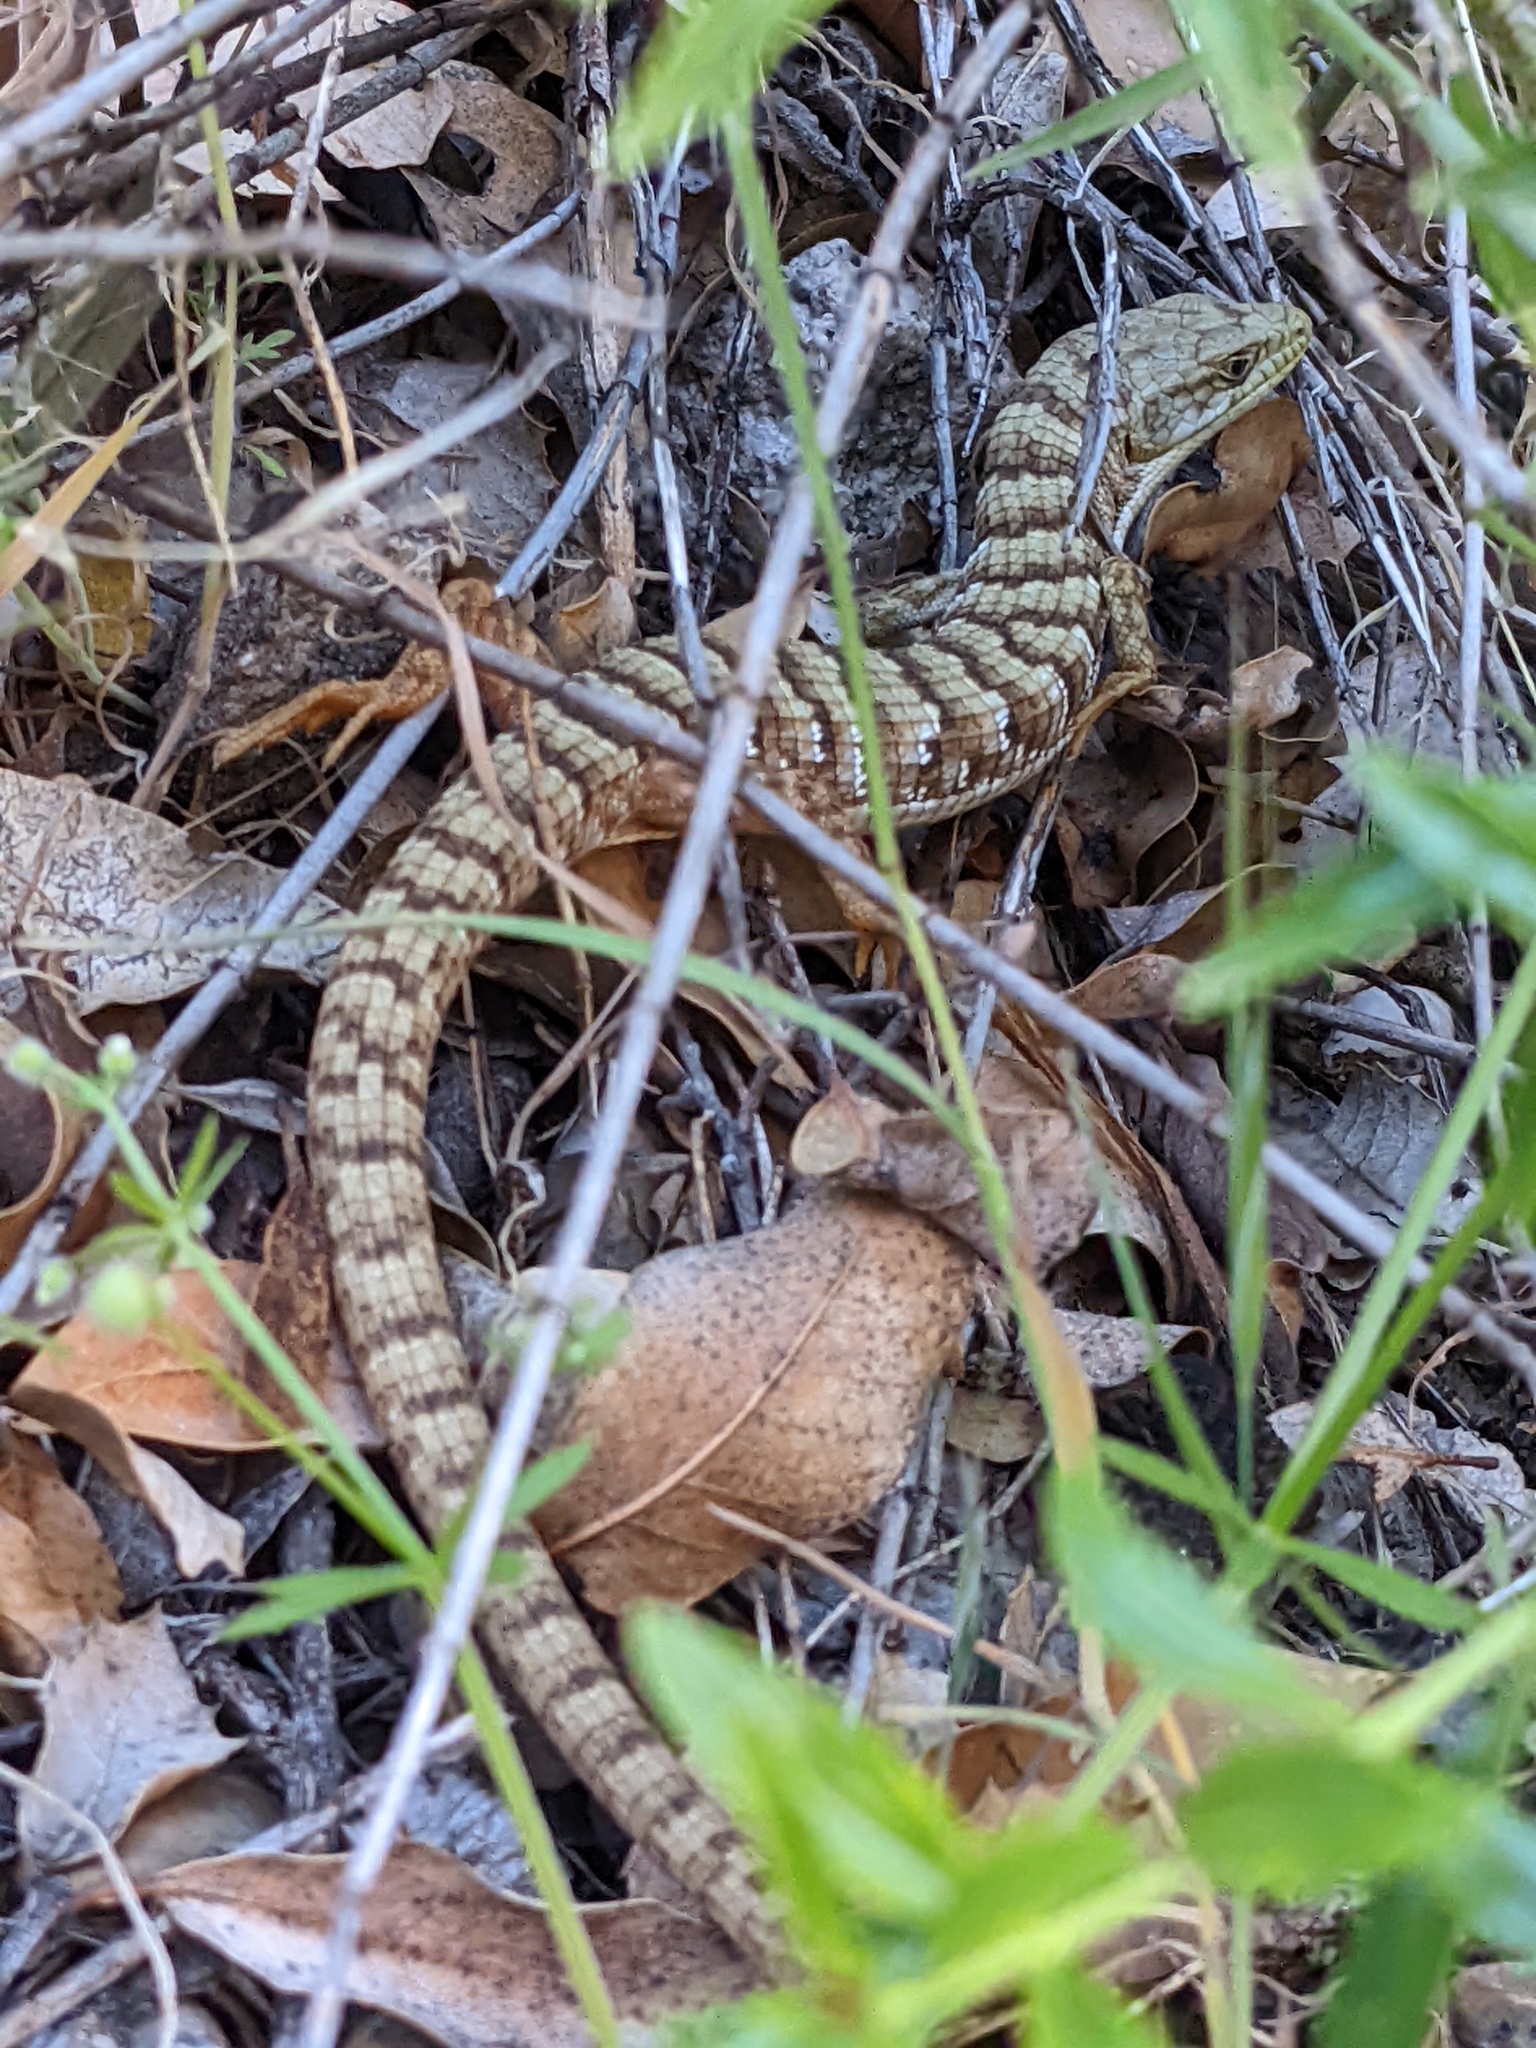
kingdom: Animalia
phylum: Chordata
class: Squamata
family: Anguidae
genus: Elgaria
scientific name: Elgaria multicarinata
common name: Southern alligator lizard
